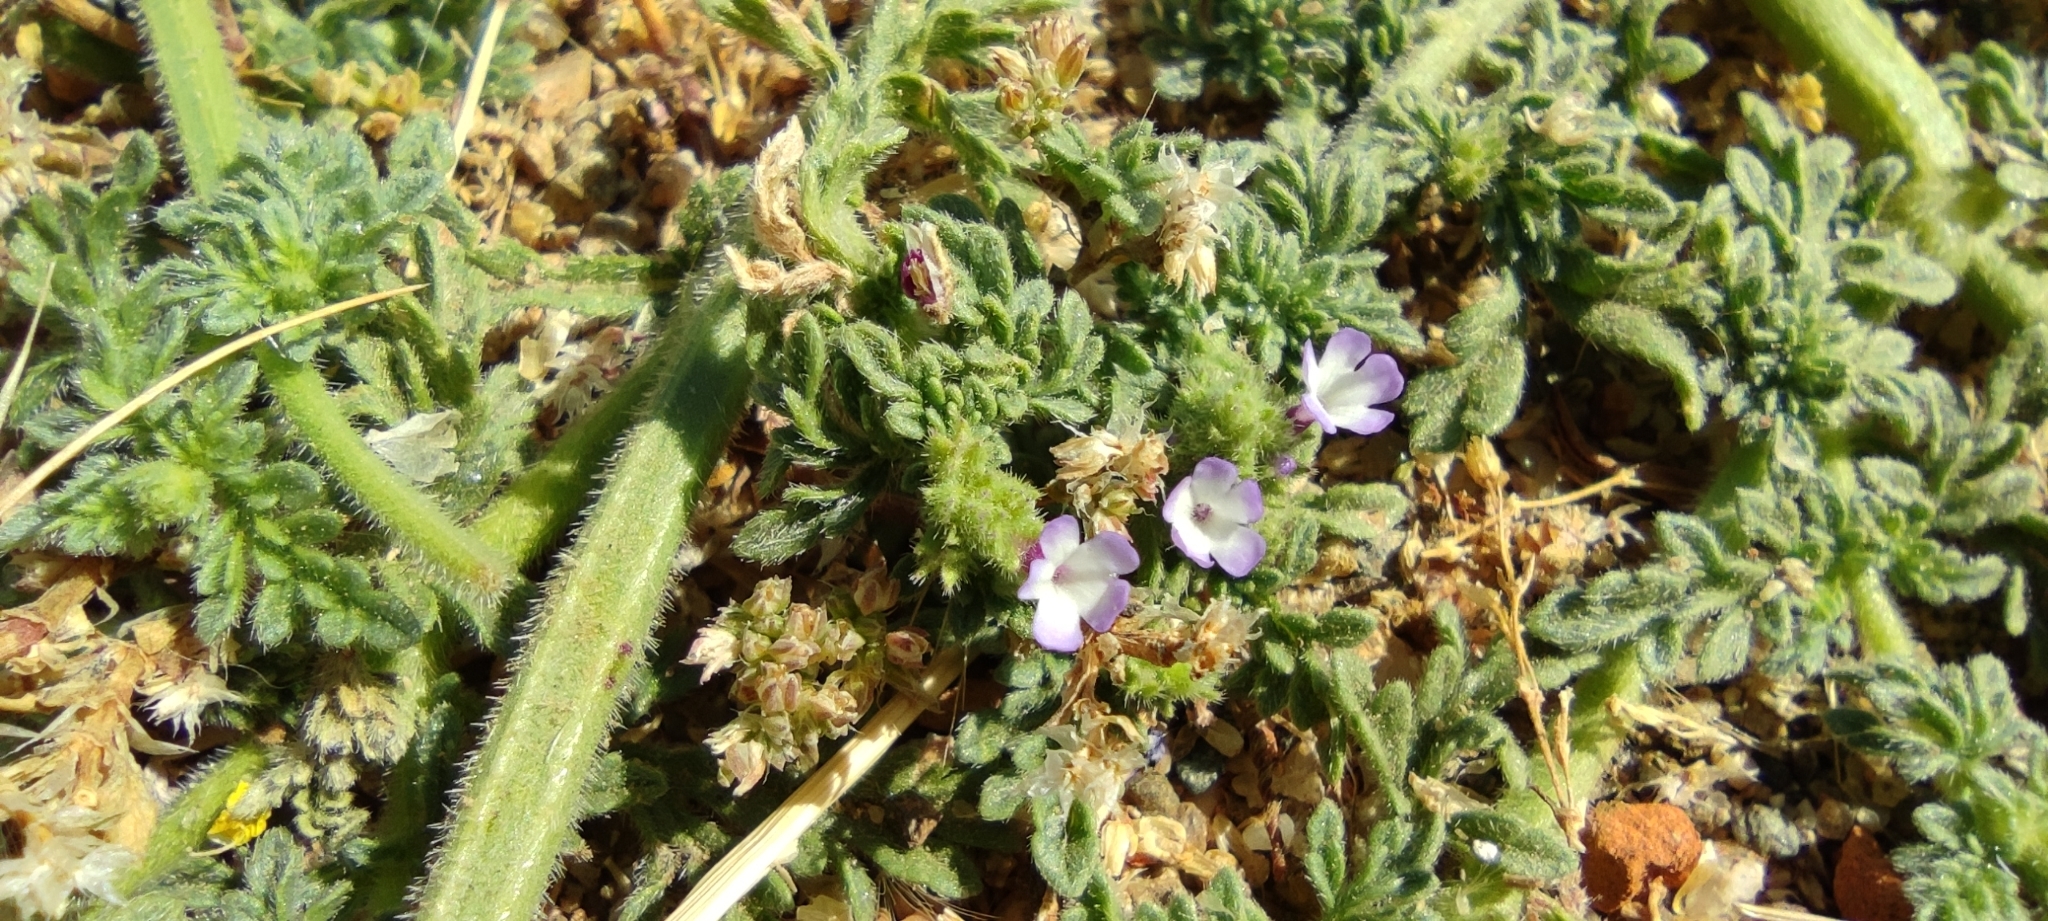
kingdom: Plantae
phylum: Tracheophyta
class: Magnoliopsida
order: Lamiales
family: Verbenaceae
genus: Verbena
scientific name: Verbena supina
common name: Trailing vervain
